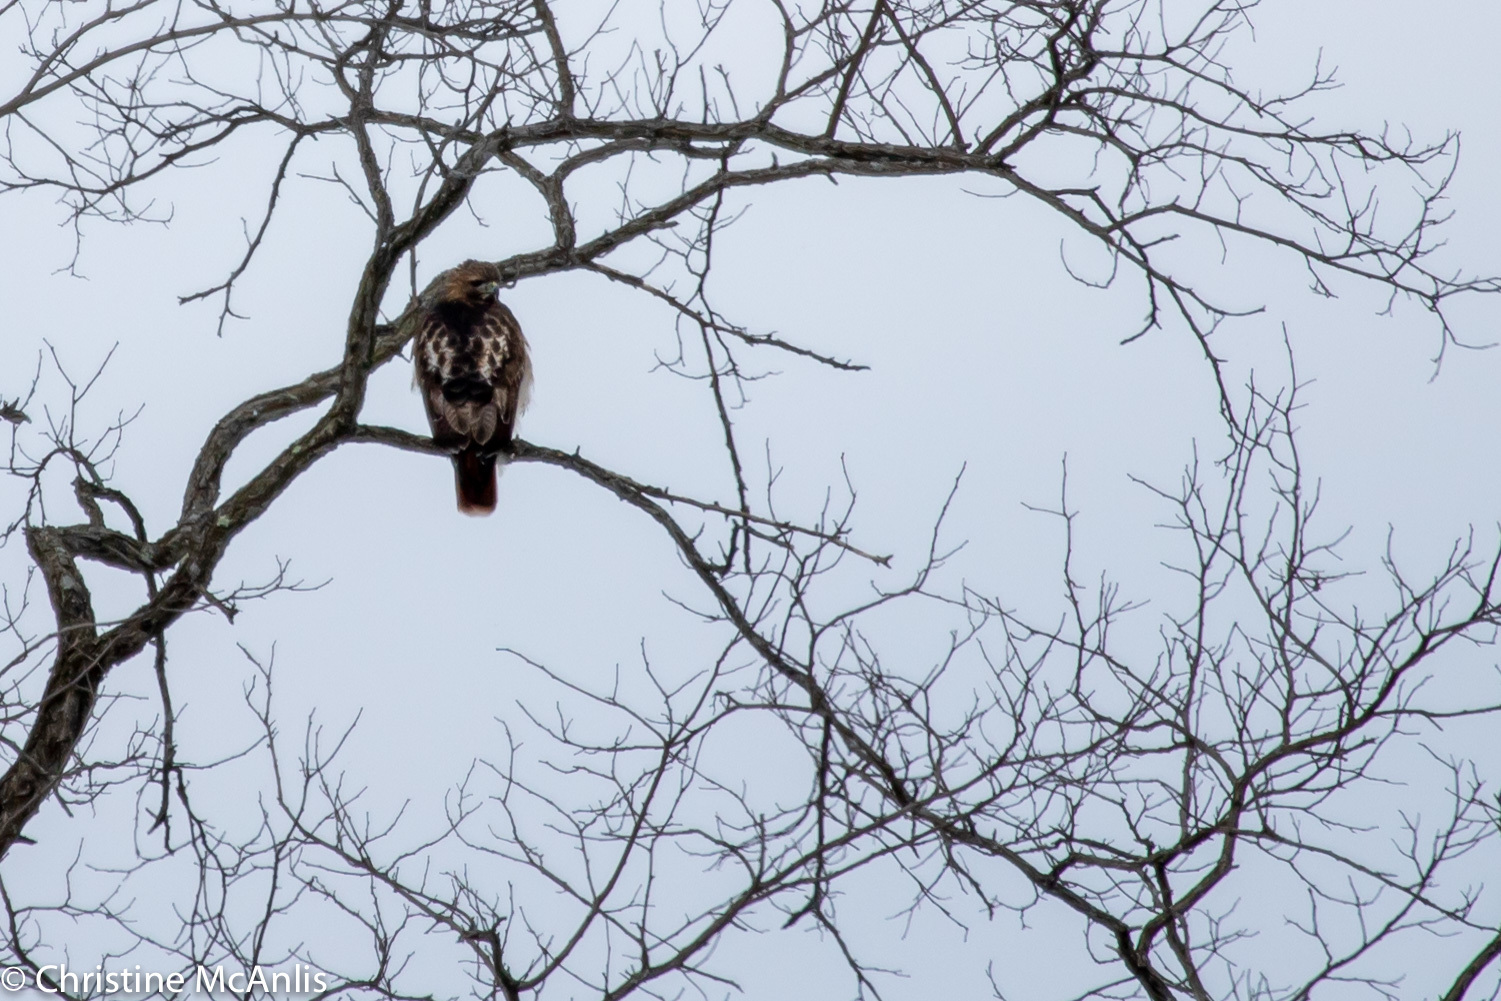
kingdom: Animalia
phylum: Chordata
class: Aves
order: Accipitriformes
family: Accipitridae
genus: Buteo
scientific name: Buteo jamaicensis
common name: Red-tailed hawk
